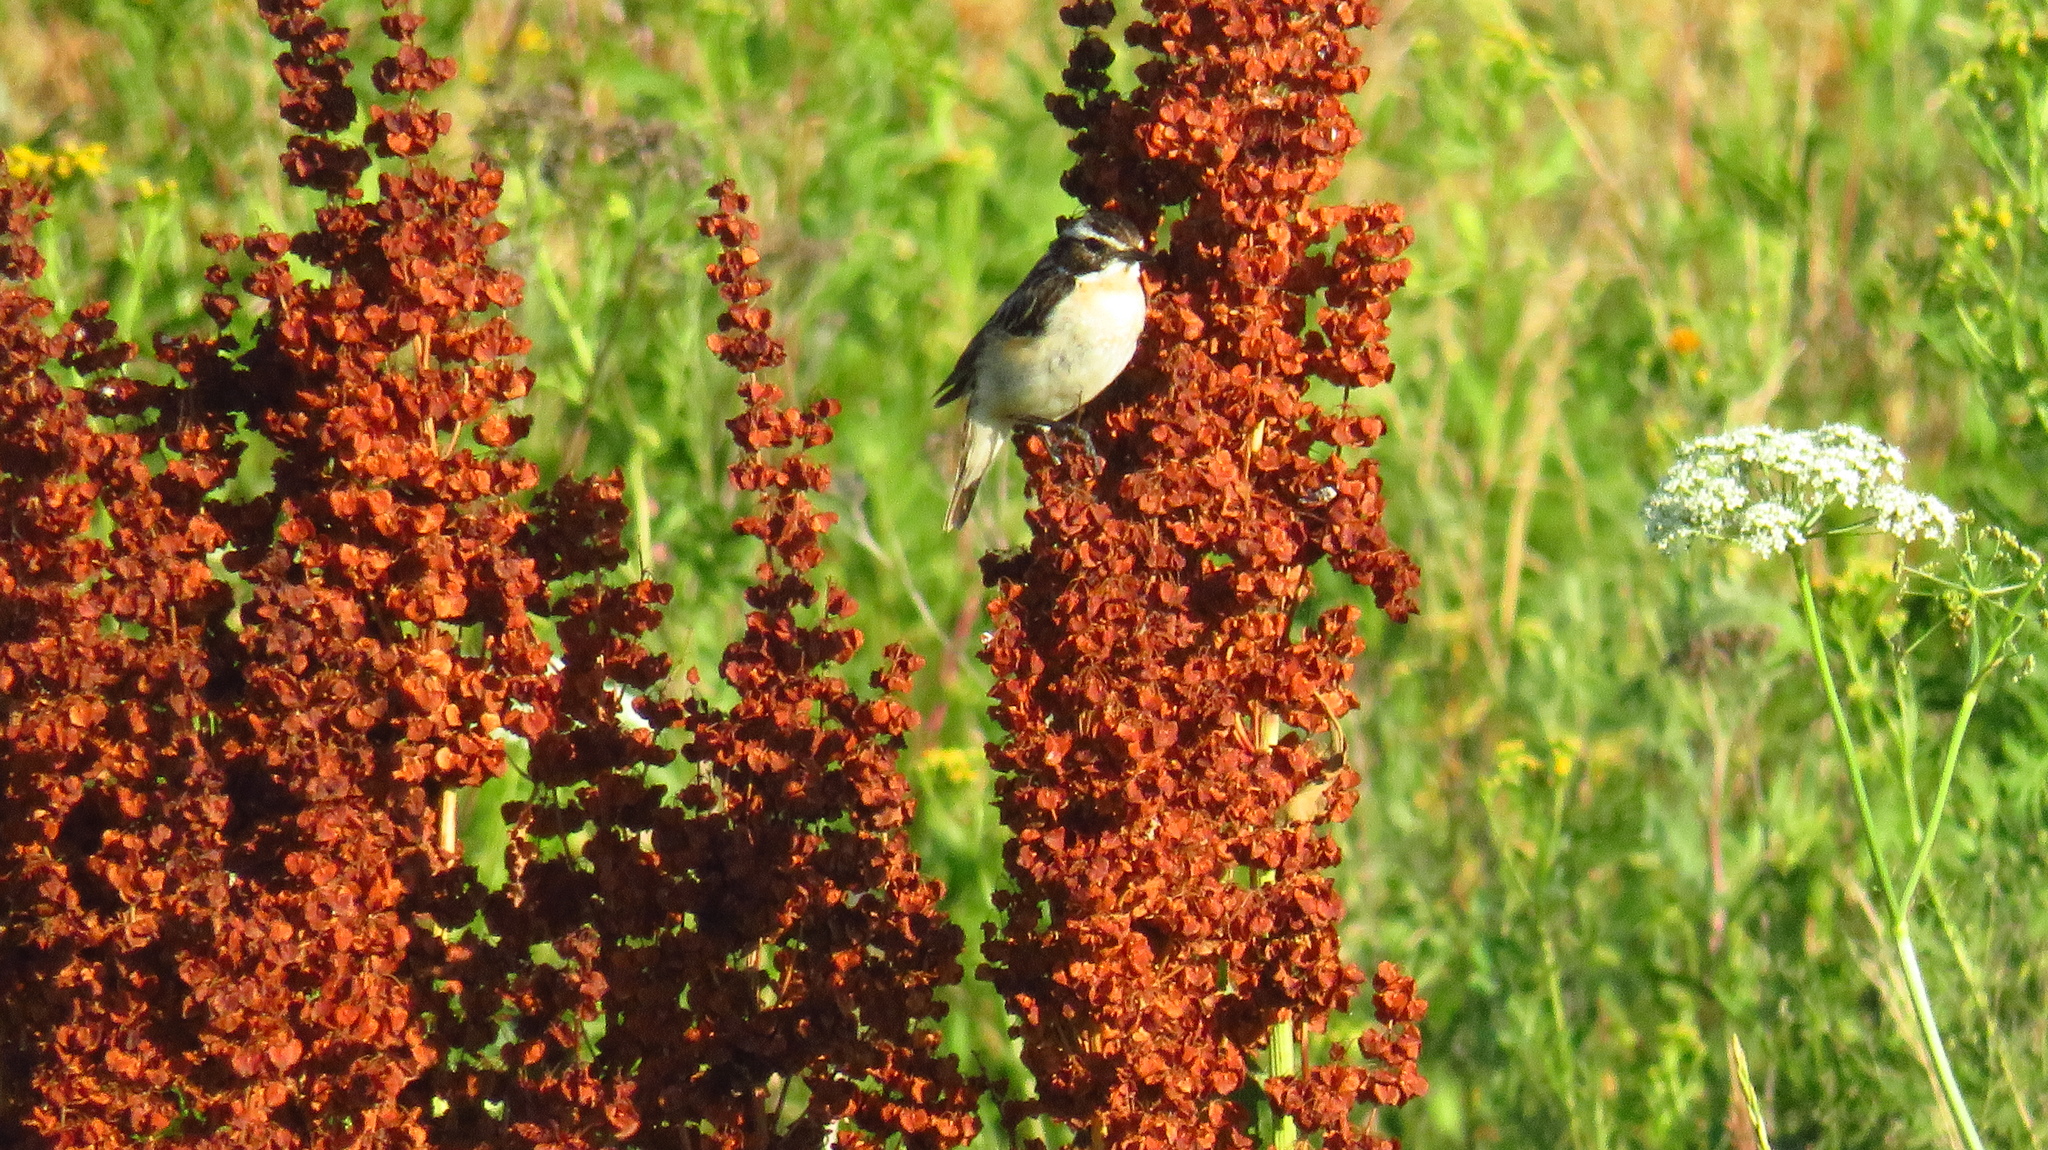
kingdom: Animalia
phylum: Chordata
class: Aves
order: Passeriformes
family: Muscicapidae
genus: Saxicola
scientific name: Saxicola rubetra
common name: Whinchat
